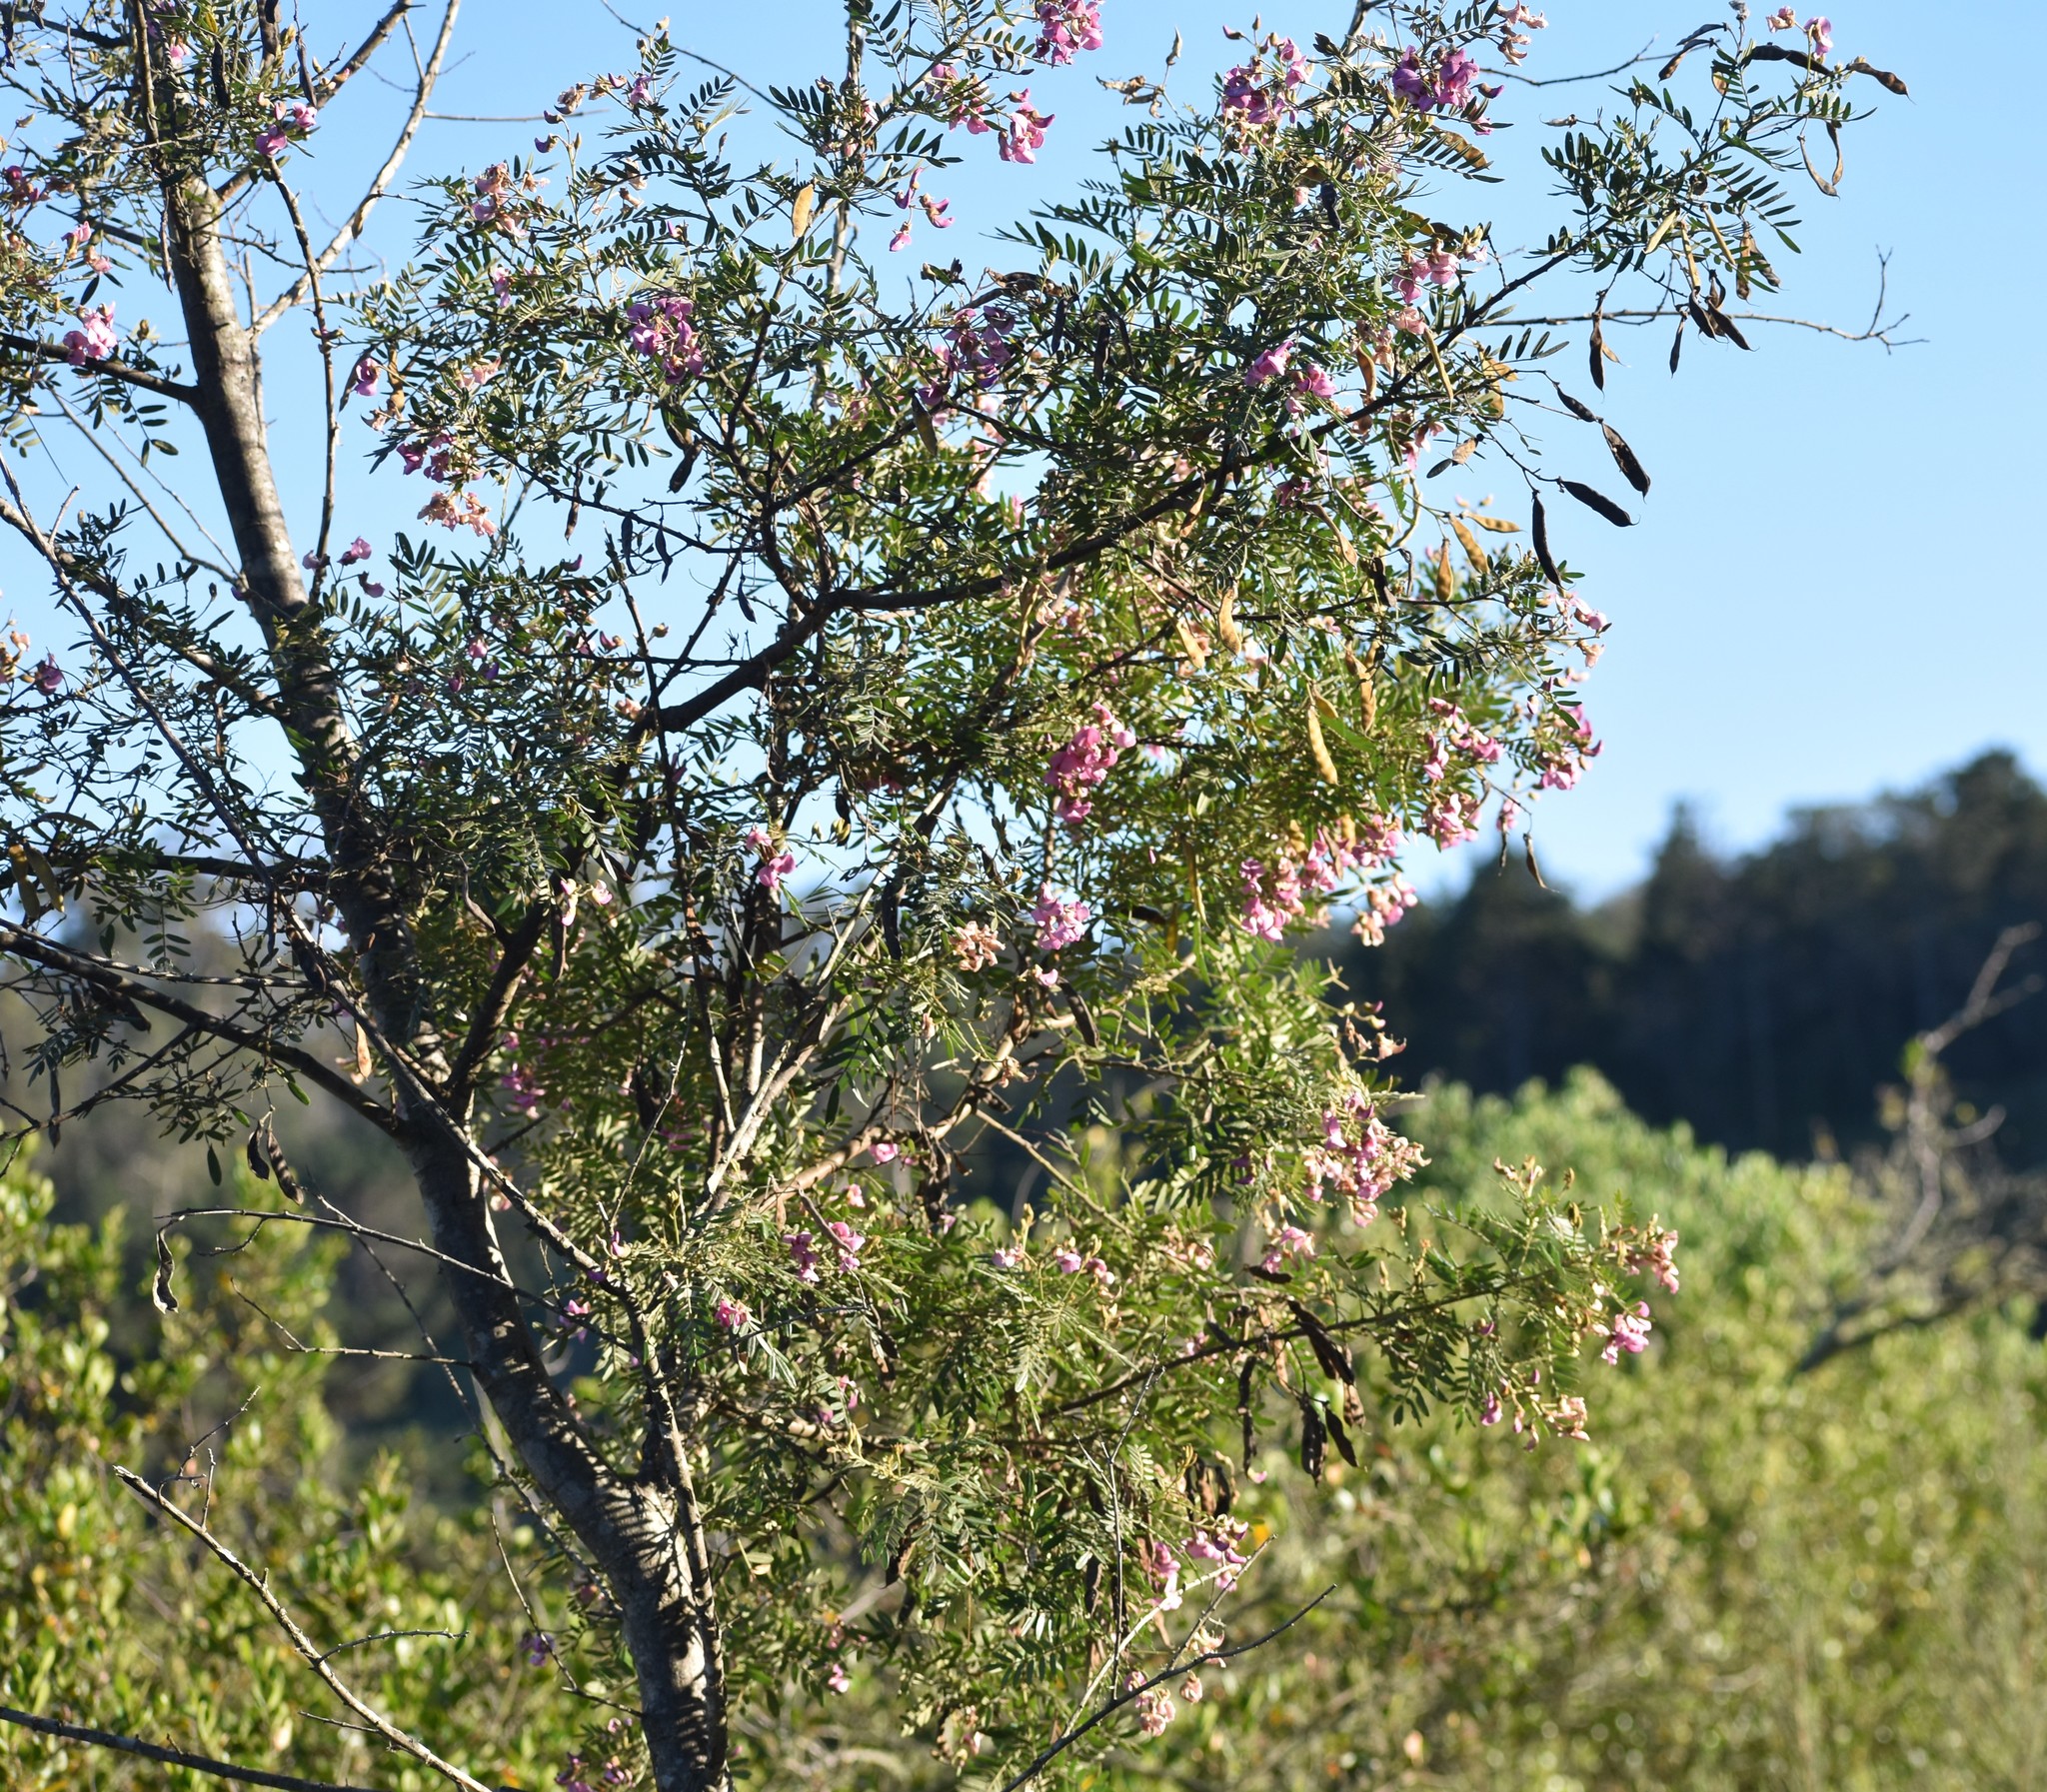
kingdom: Plantae
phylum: Tracheophyta
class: Magnoliopsida
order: Fabales
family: Fabaceae
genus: Virgilia
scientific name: Virgilia divaricata
